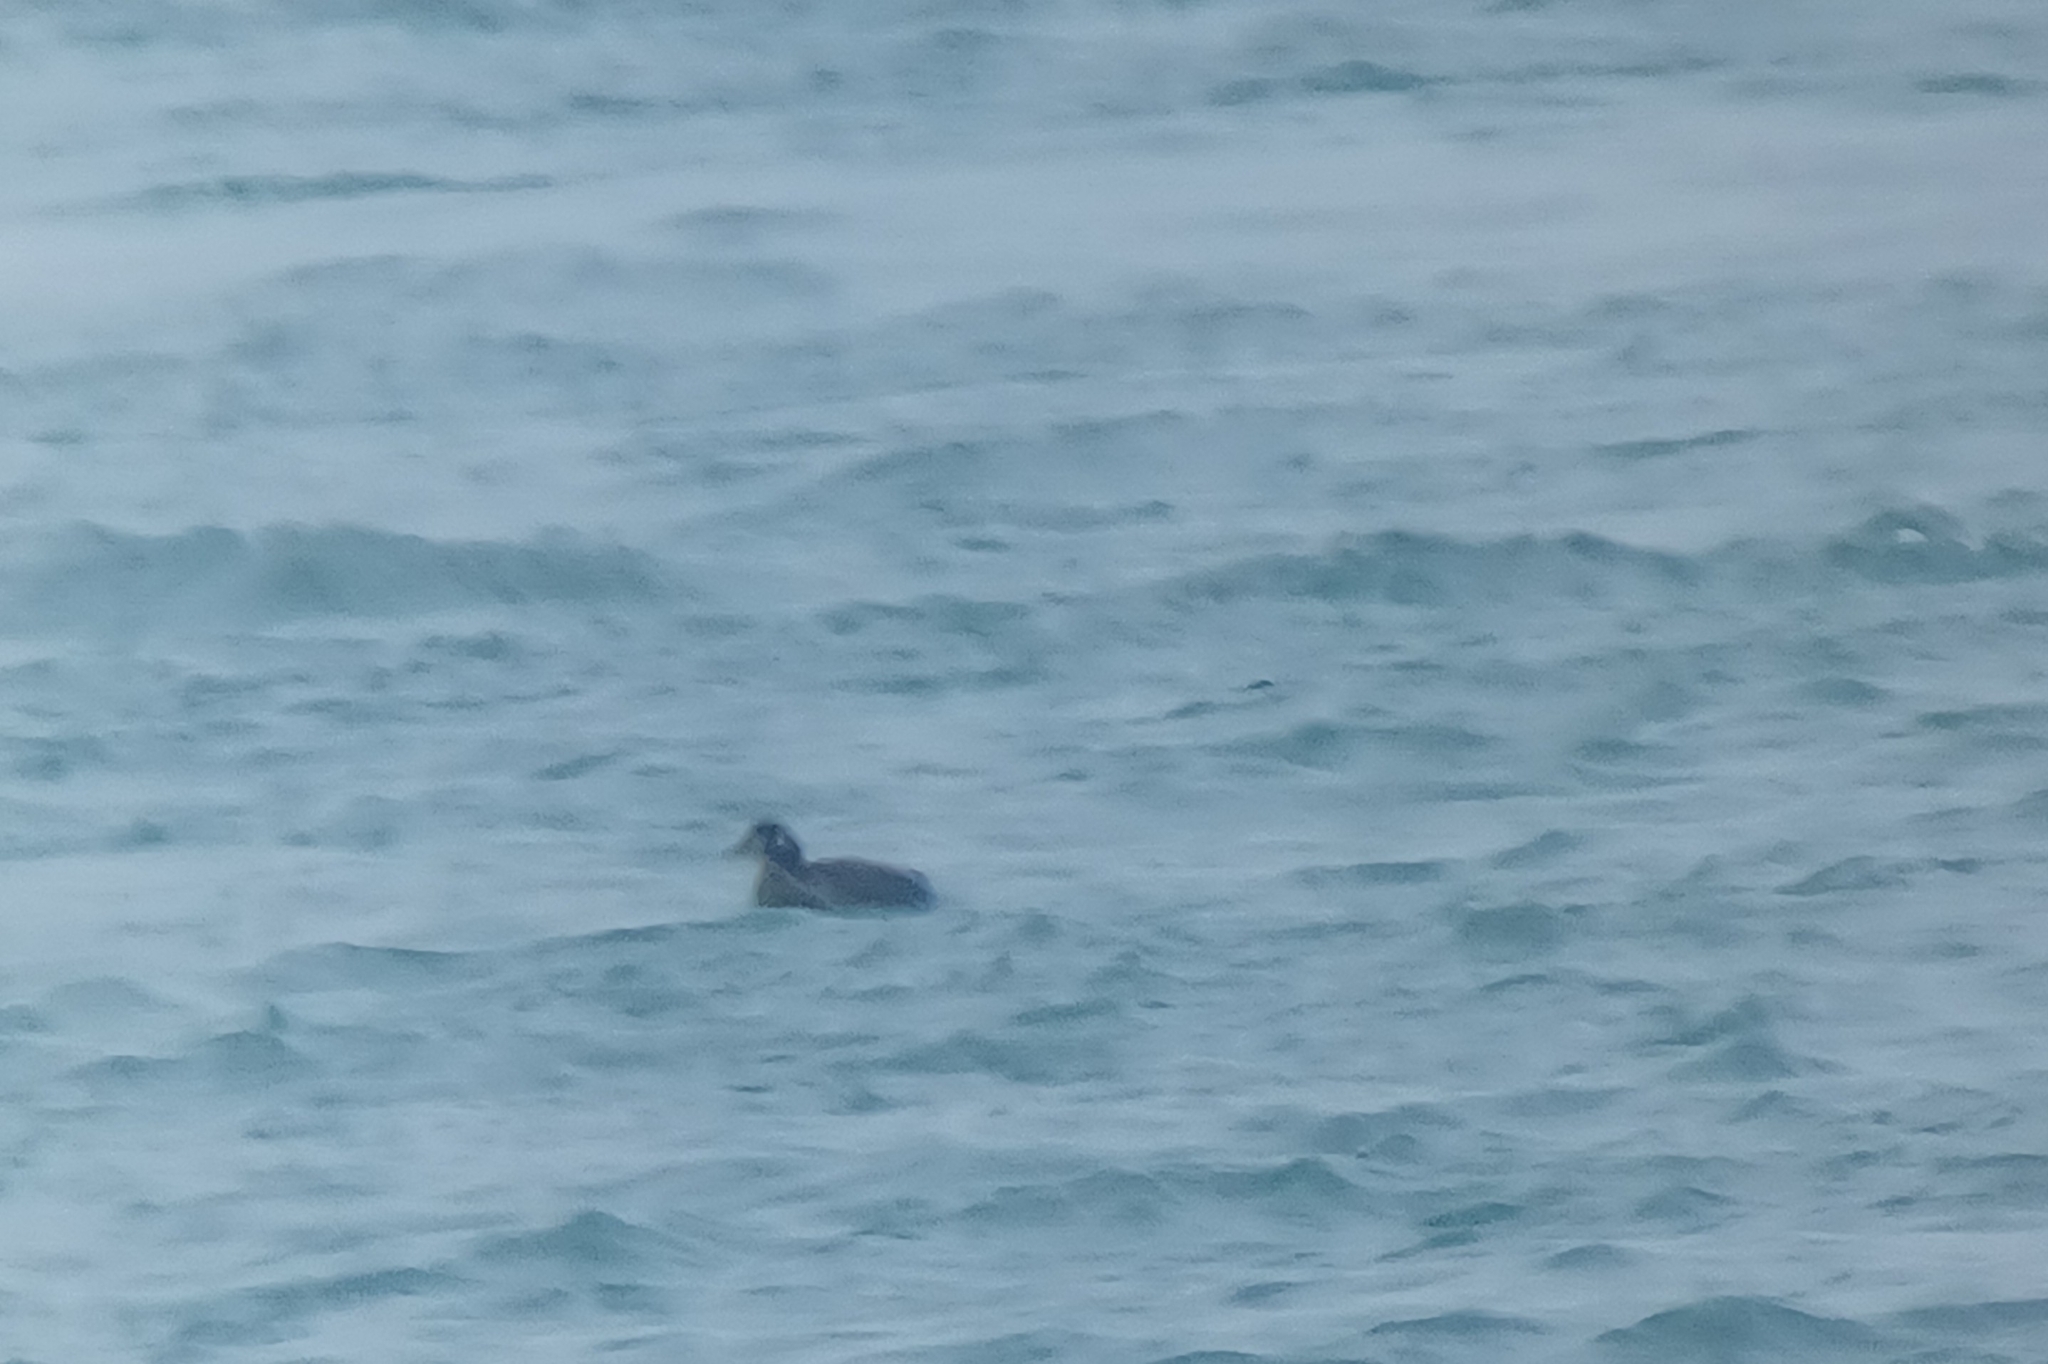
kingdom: Animalia
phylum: Chordata
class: Aves
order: Anseriformes
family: Anatidae
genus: Histrionicus
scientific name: Histrionicus histrionicus
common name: Harlequin duck
